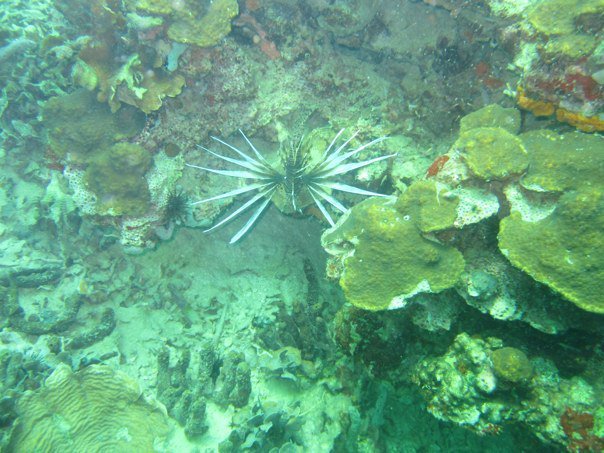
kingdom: Animalia
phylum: Chordata
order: Scorpaeniformes
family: Scorpaenidae
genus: Pterois
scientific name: Pterois volitans
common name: Lionfish
